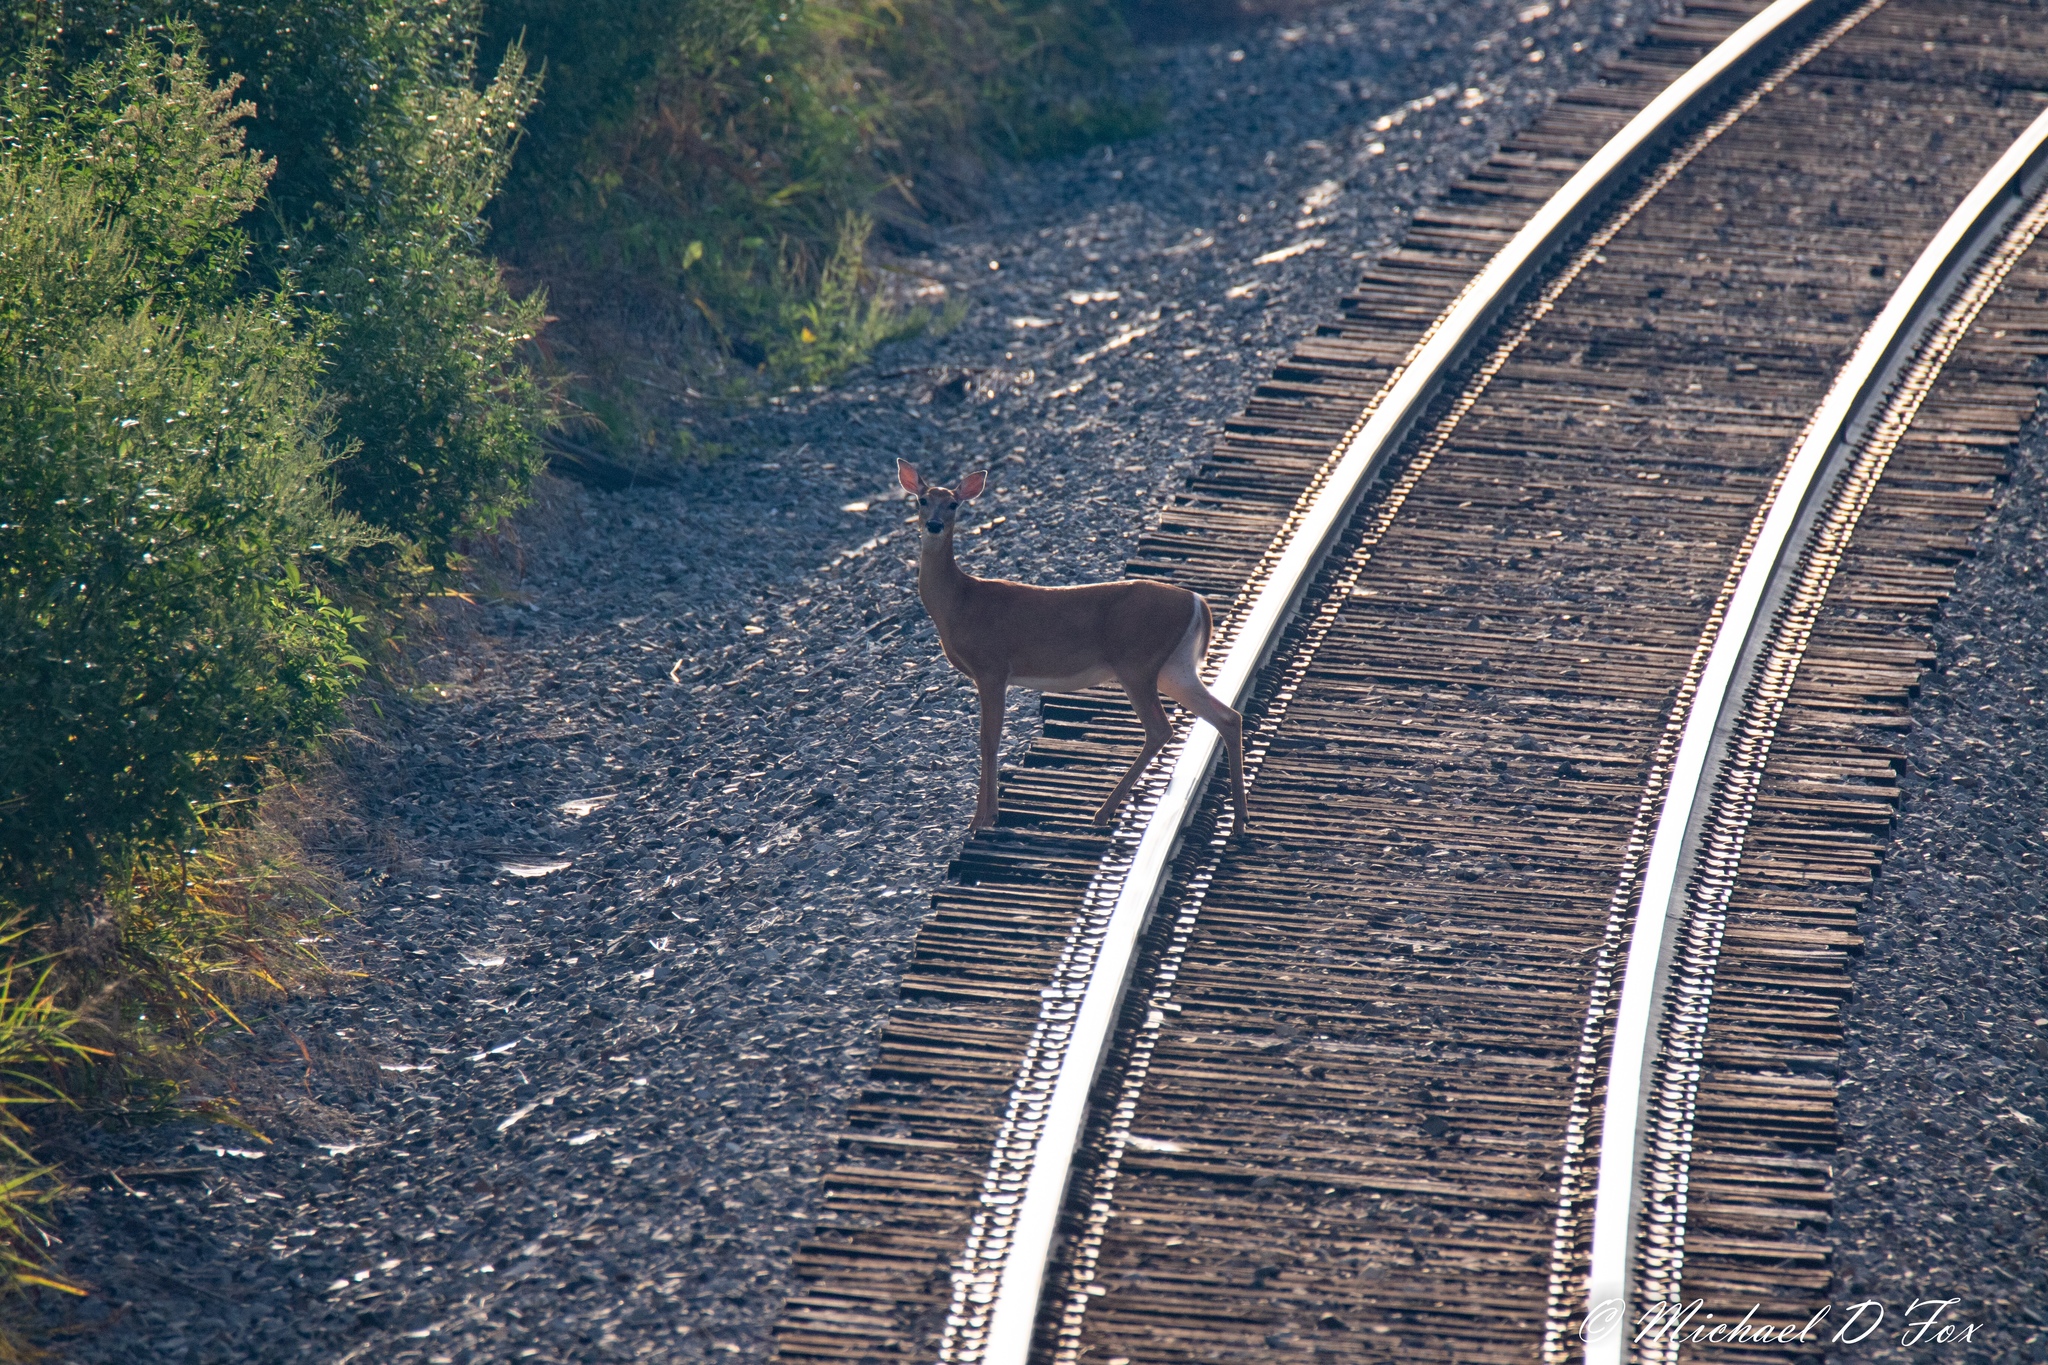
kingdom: Animalia
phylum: Chordata
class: Mammalia
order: Artiodactyla
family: Cervidae
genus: Odocoileus
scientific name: Odocoileus virginianus
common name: White-tailed deer
